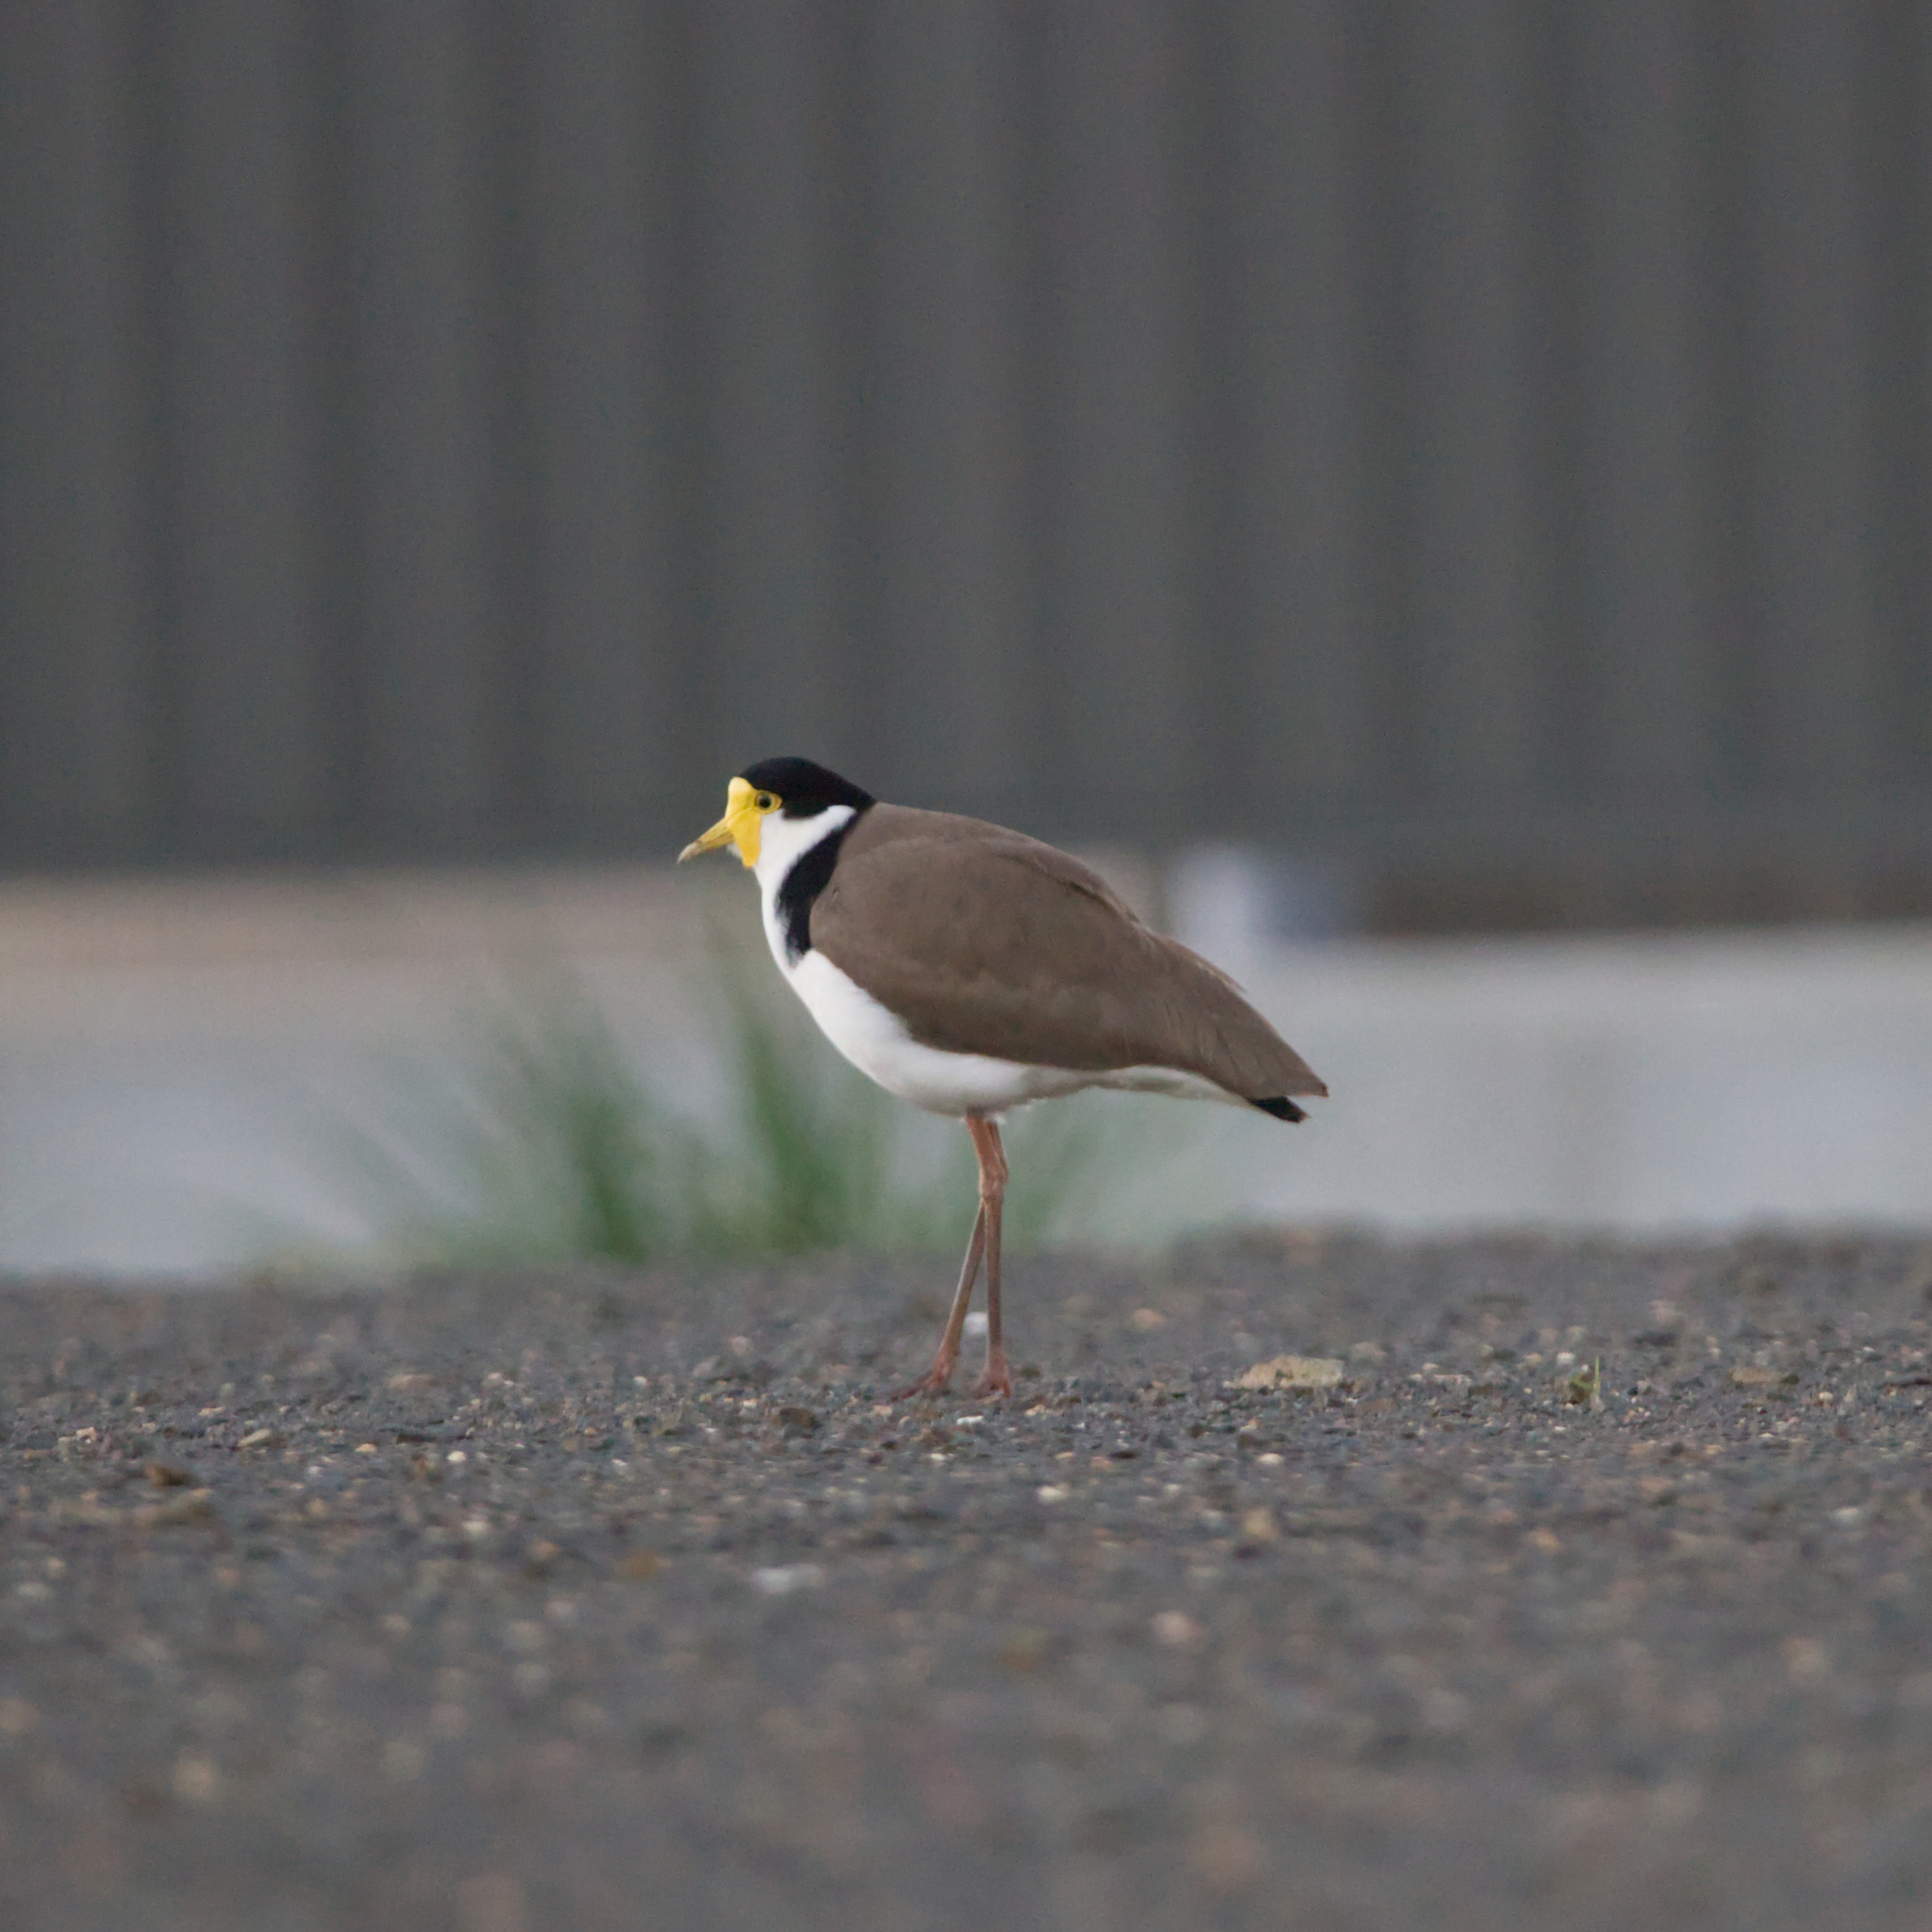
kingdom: Animalia
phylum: Chordata
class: Aves
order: Charadriiformes
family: Charadriidae
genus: Vanellus
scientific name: Vanellus miles
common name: Masked lapwing
